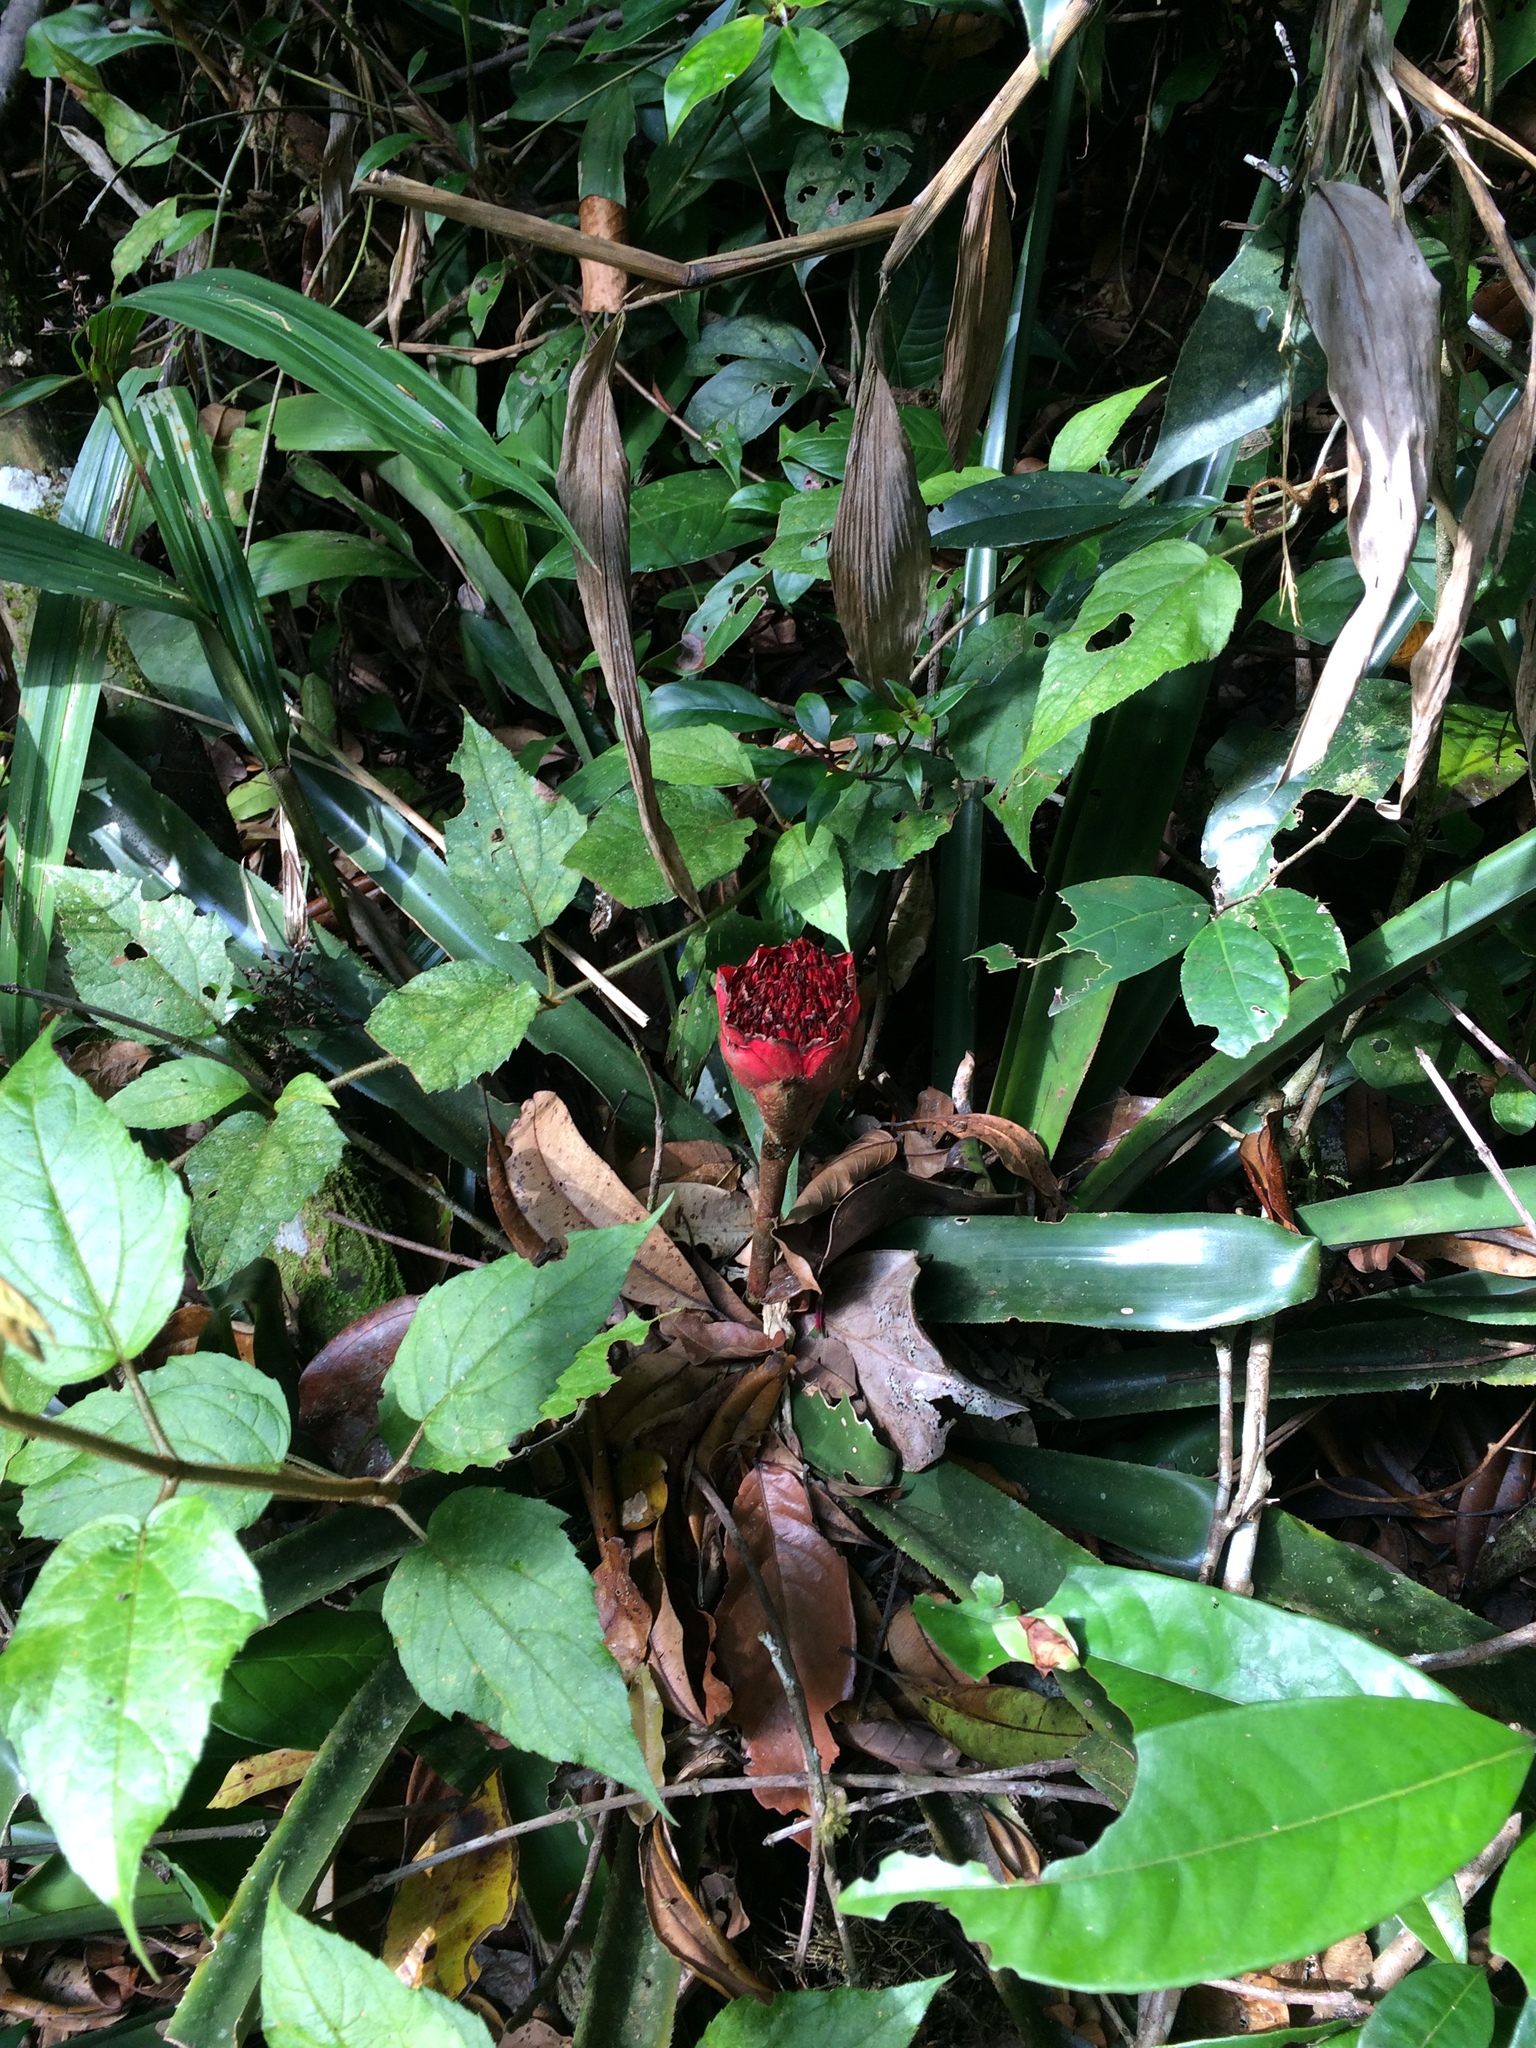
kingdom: Plantae
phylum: Tracheophyta
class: Liliopsida
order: Poales
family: Bromeliaceae
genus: Canistrum
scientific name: Canistrum aurantiacum
